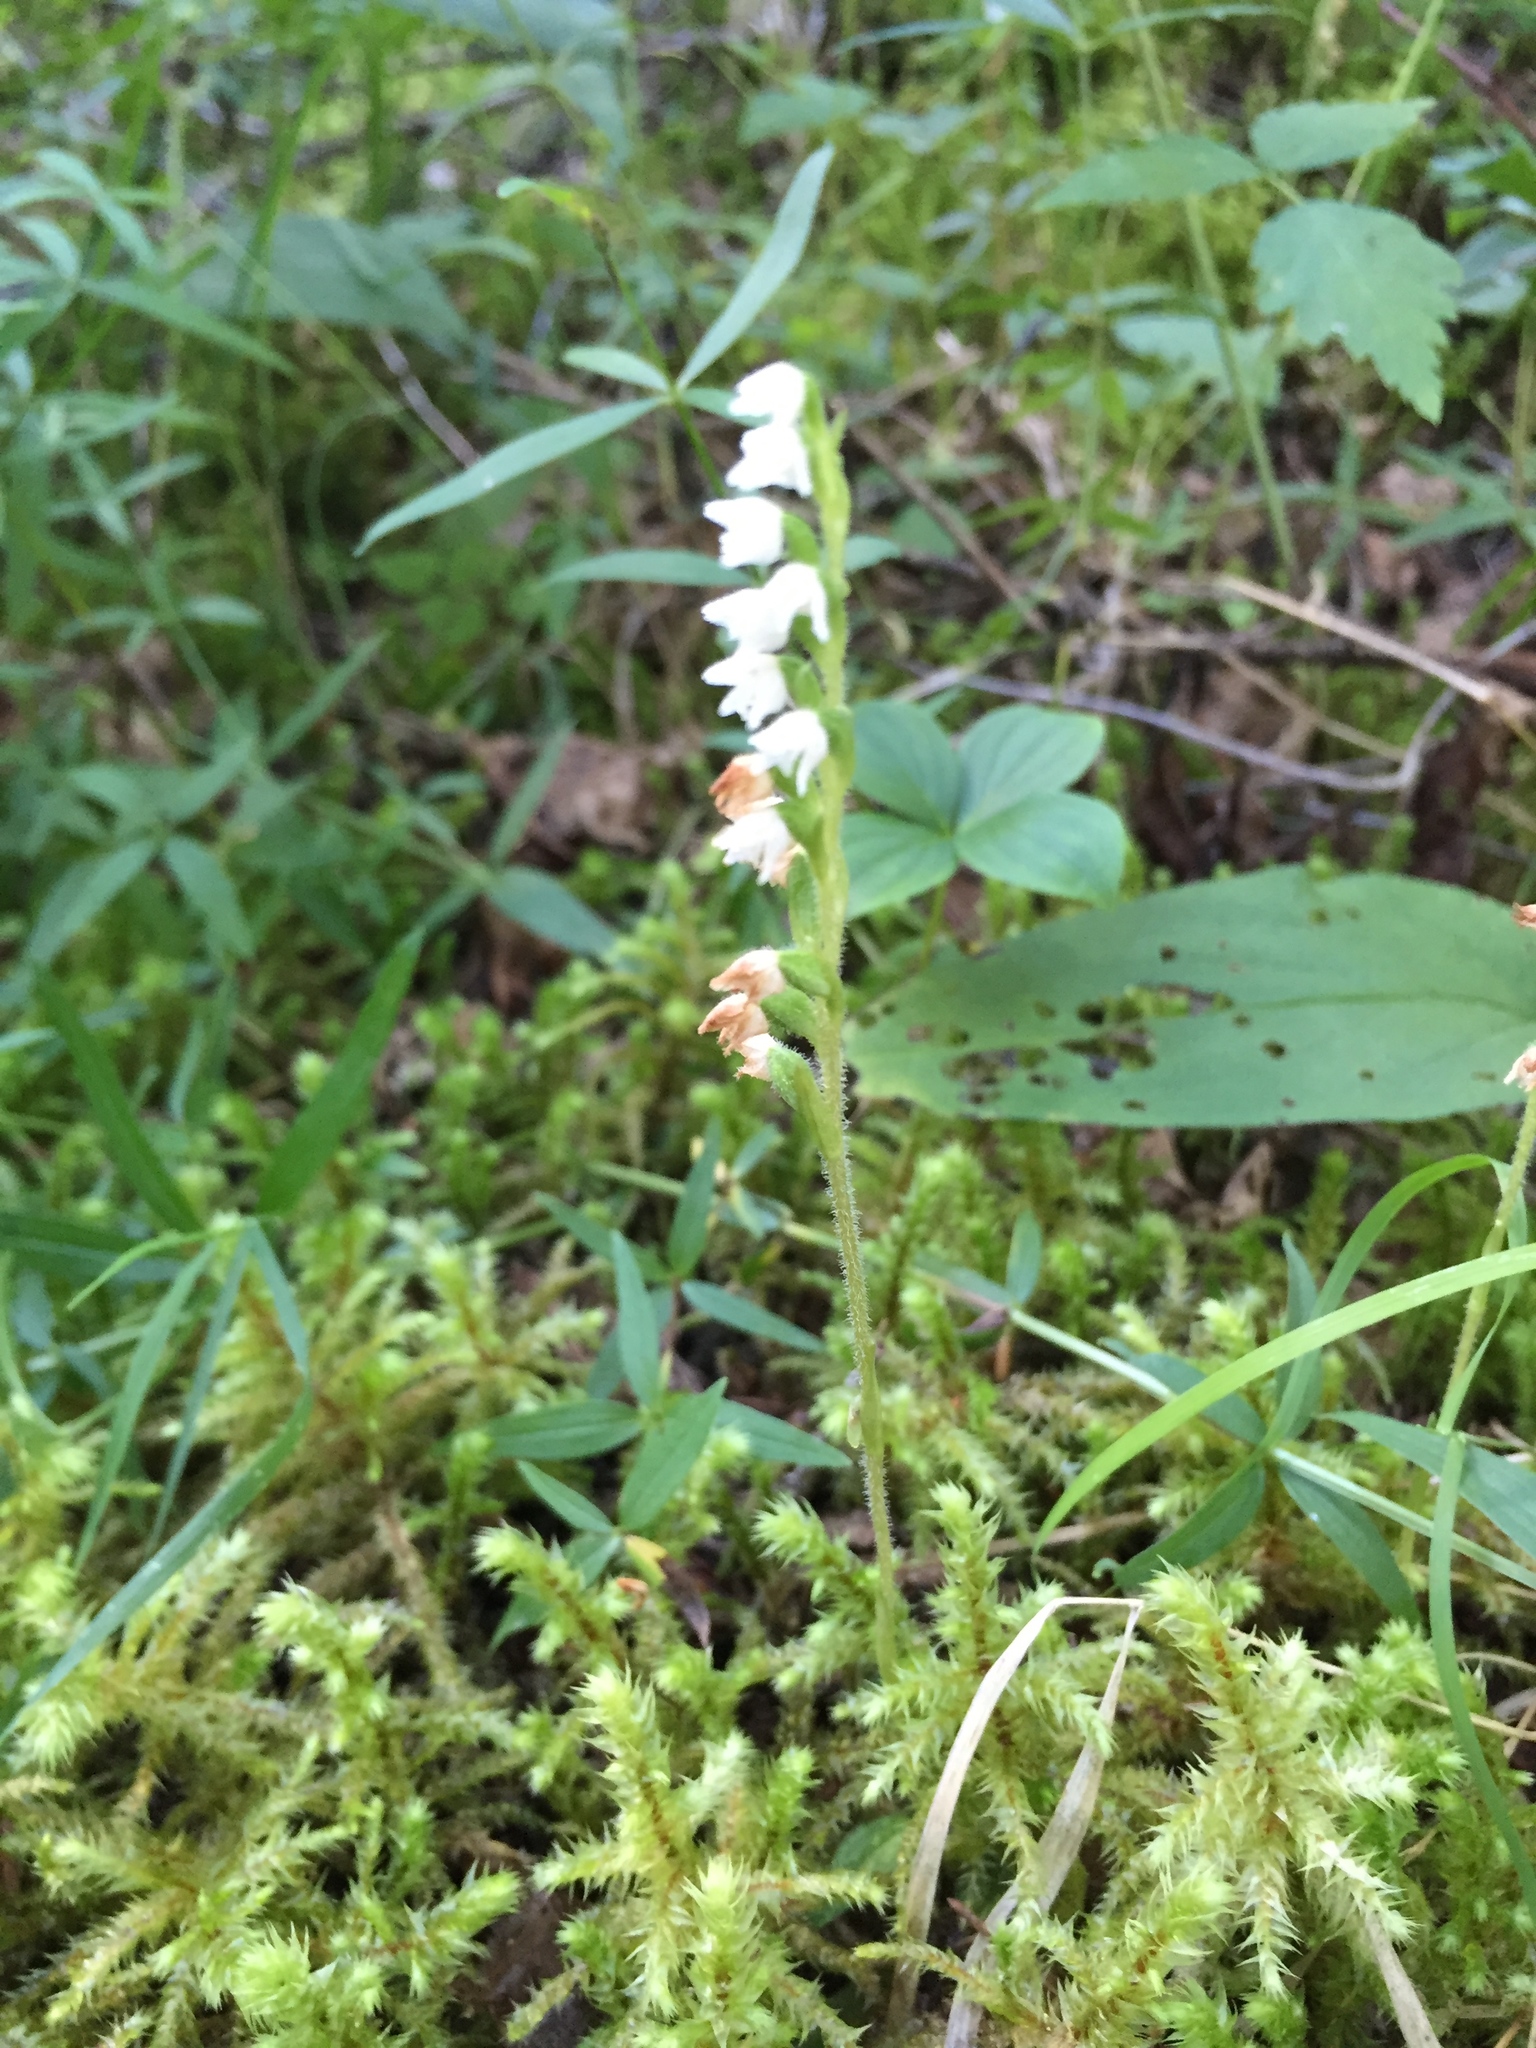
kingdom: Plantae
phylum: Tracheophyta
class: Liliopsida
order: Asparagales
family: Orchidaceae
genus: Goodyera
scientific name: Goodyera repens
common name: Creeping lady's-tresses
